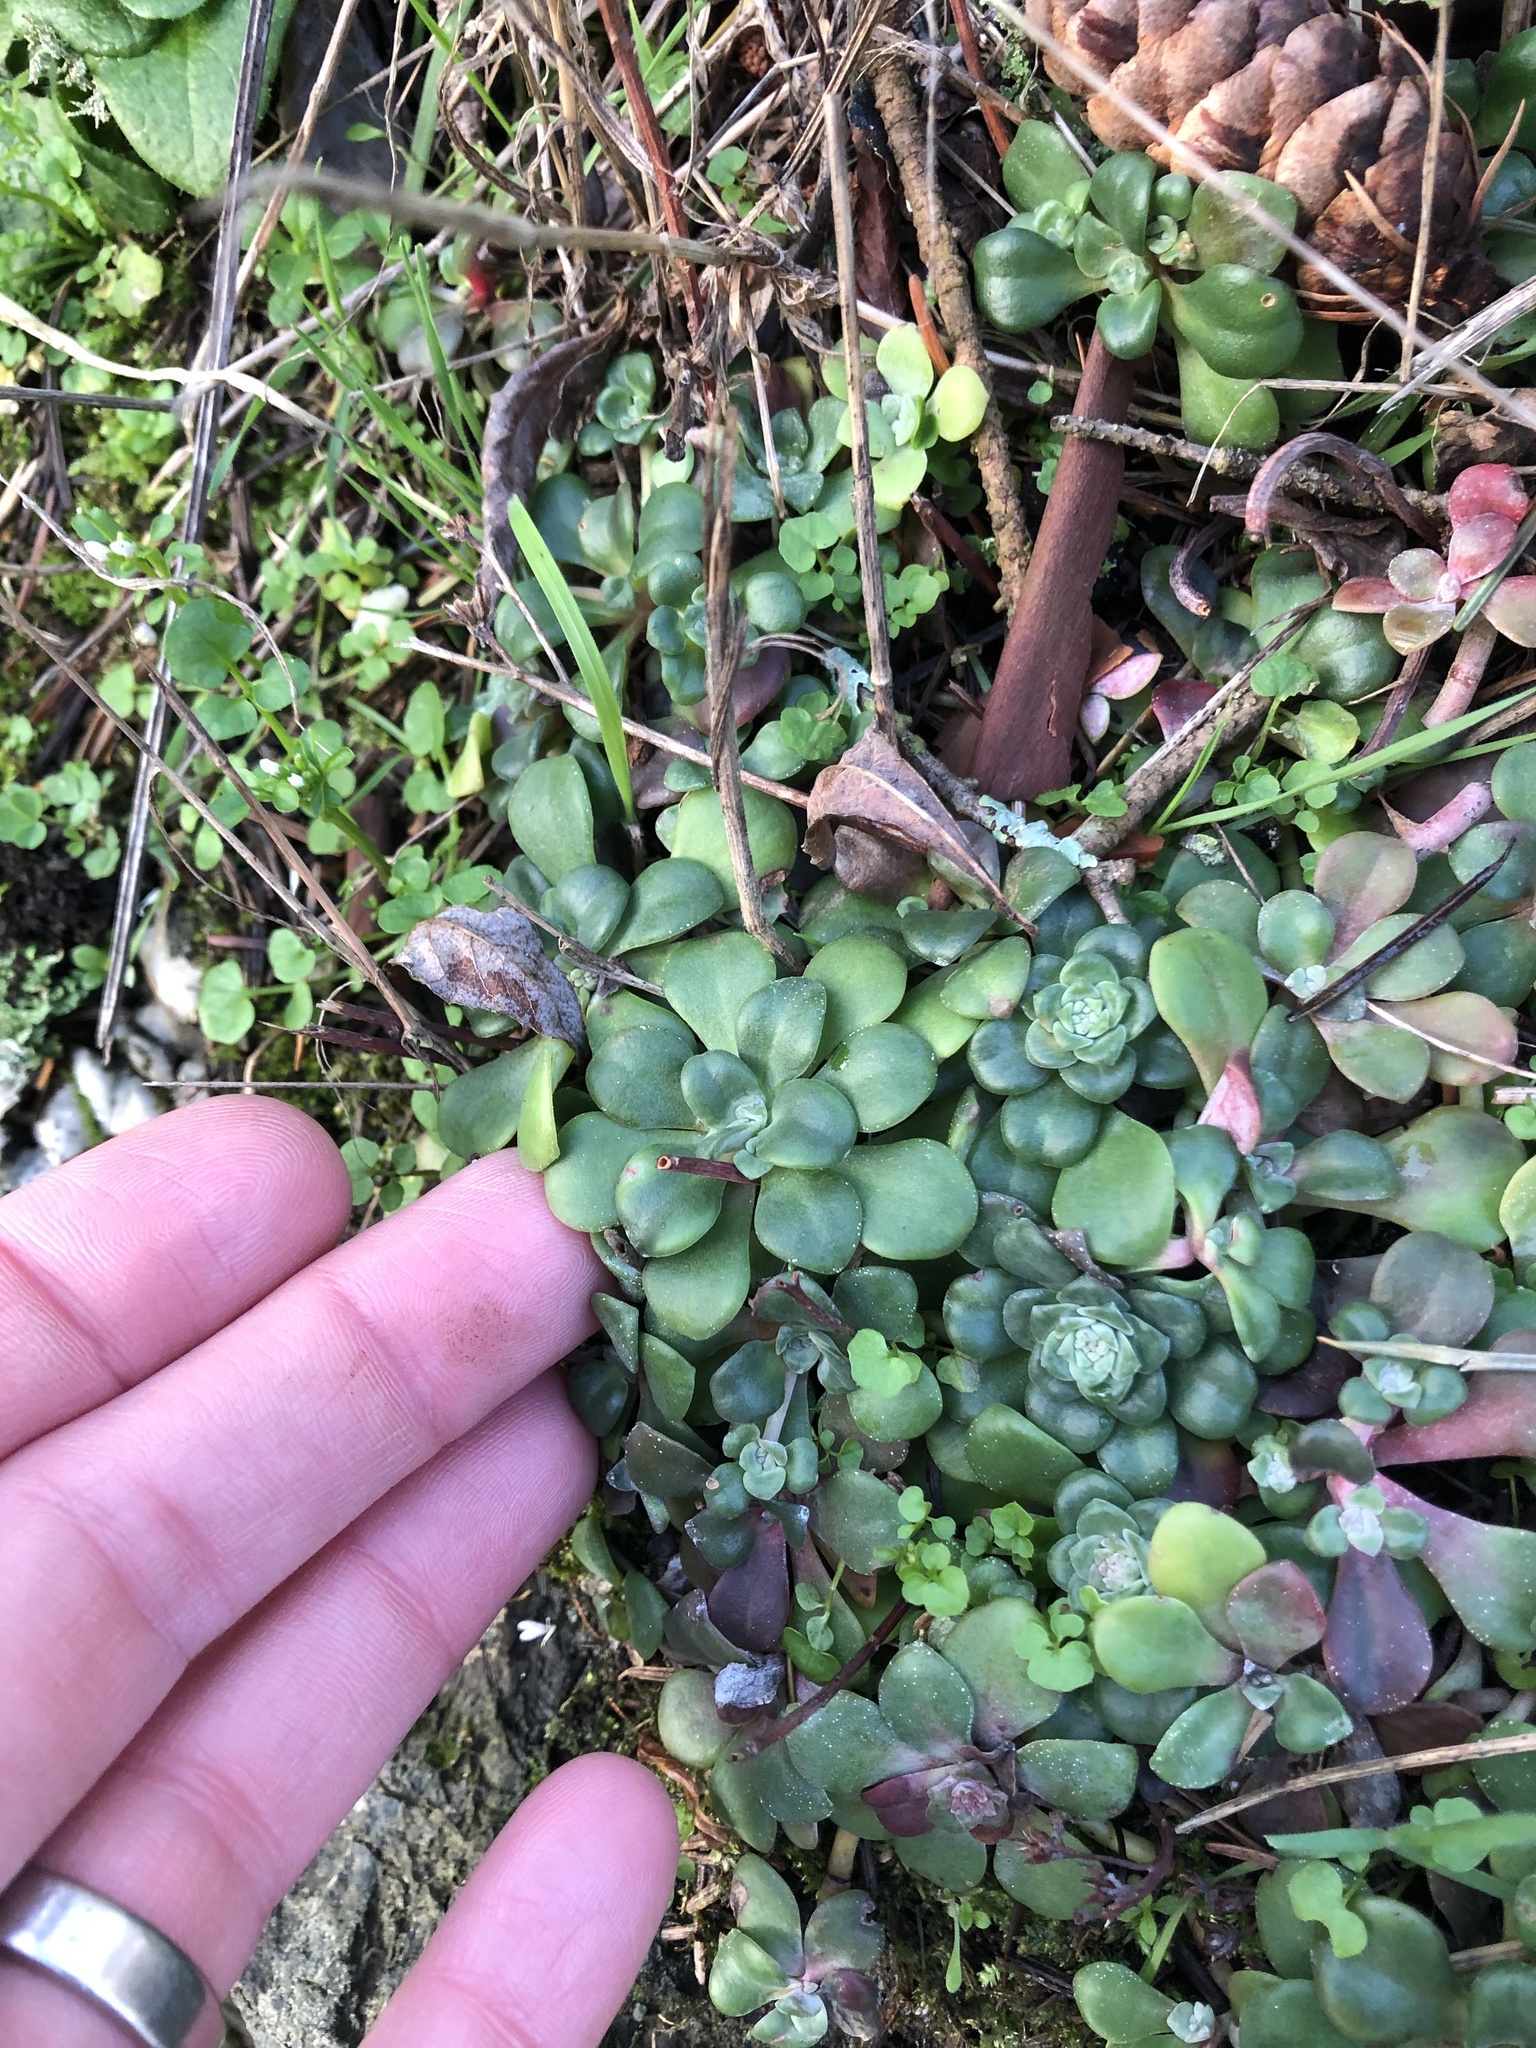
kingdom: Plantae
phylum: Tracheophyta
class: Magnoliopsida
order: Saxifragales
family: Crassulaceae
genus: Sedum
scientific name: Sedum spathulifolium
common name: Colorado stonecrop
